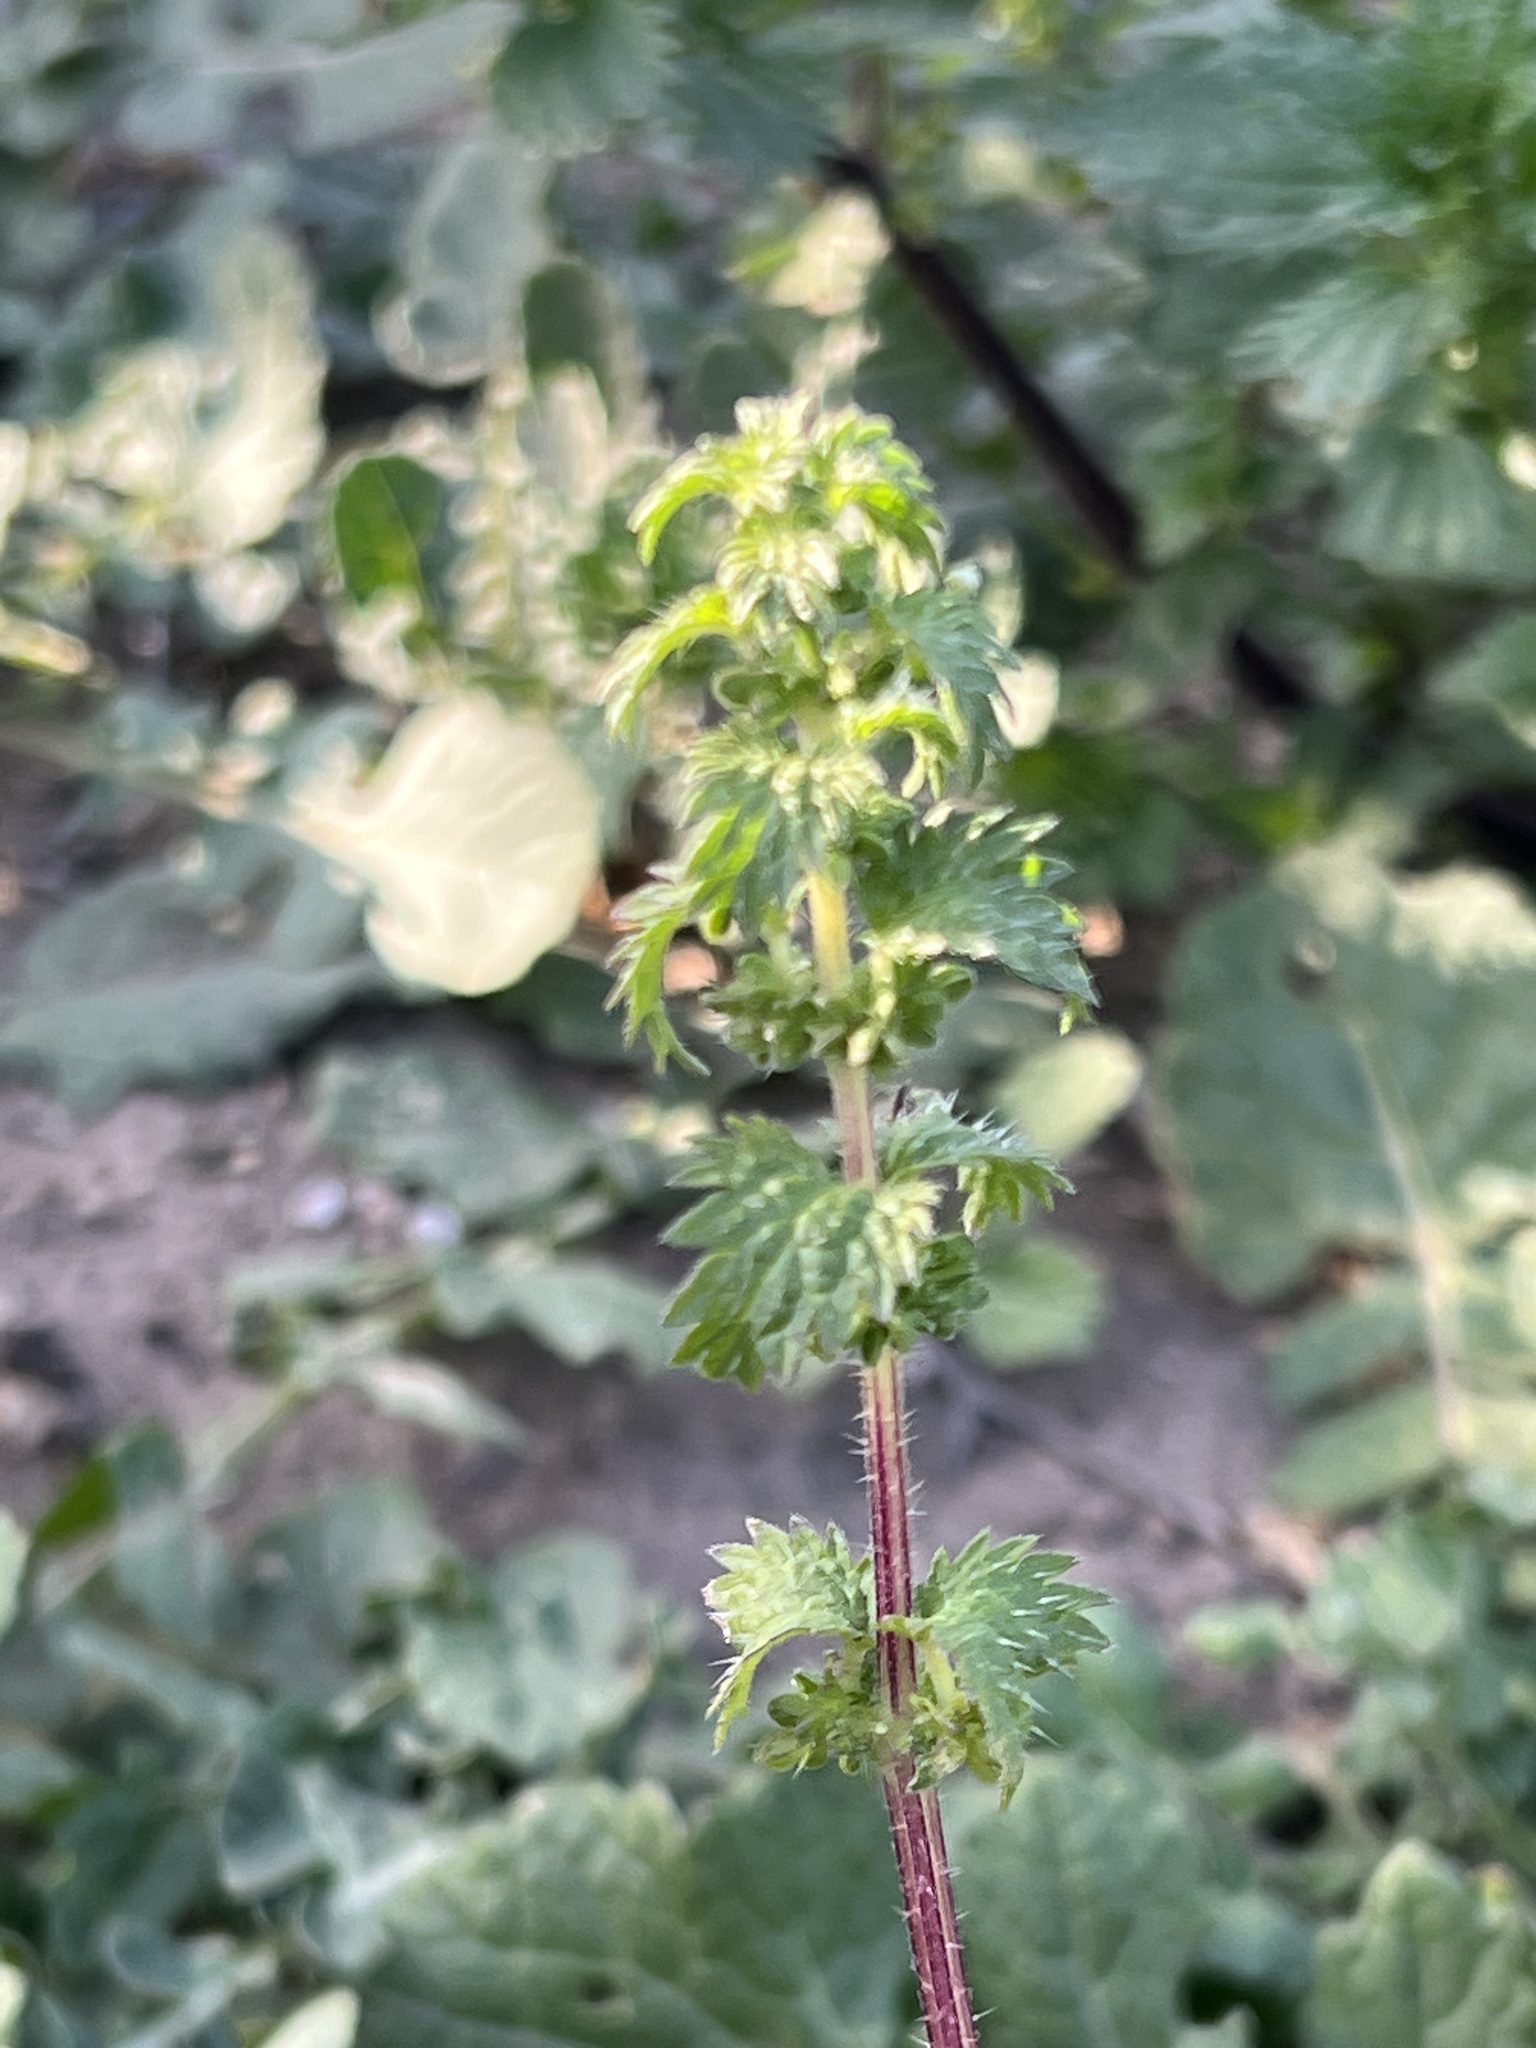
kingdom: Plantae
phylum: Tracheophyta
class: Magnoliopsida
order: Rosales
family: Urticaceae
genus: Urtica
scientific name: Urtica urens
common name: Dwarf nettle
